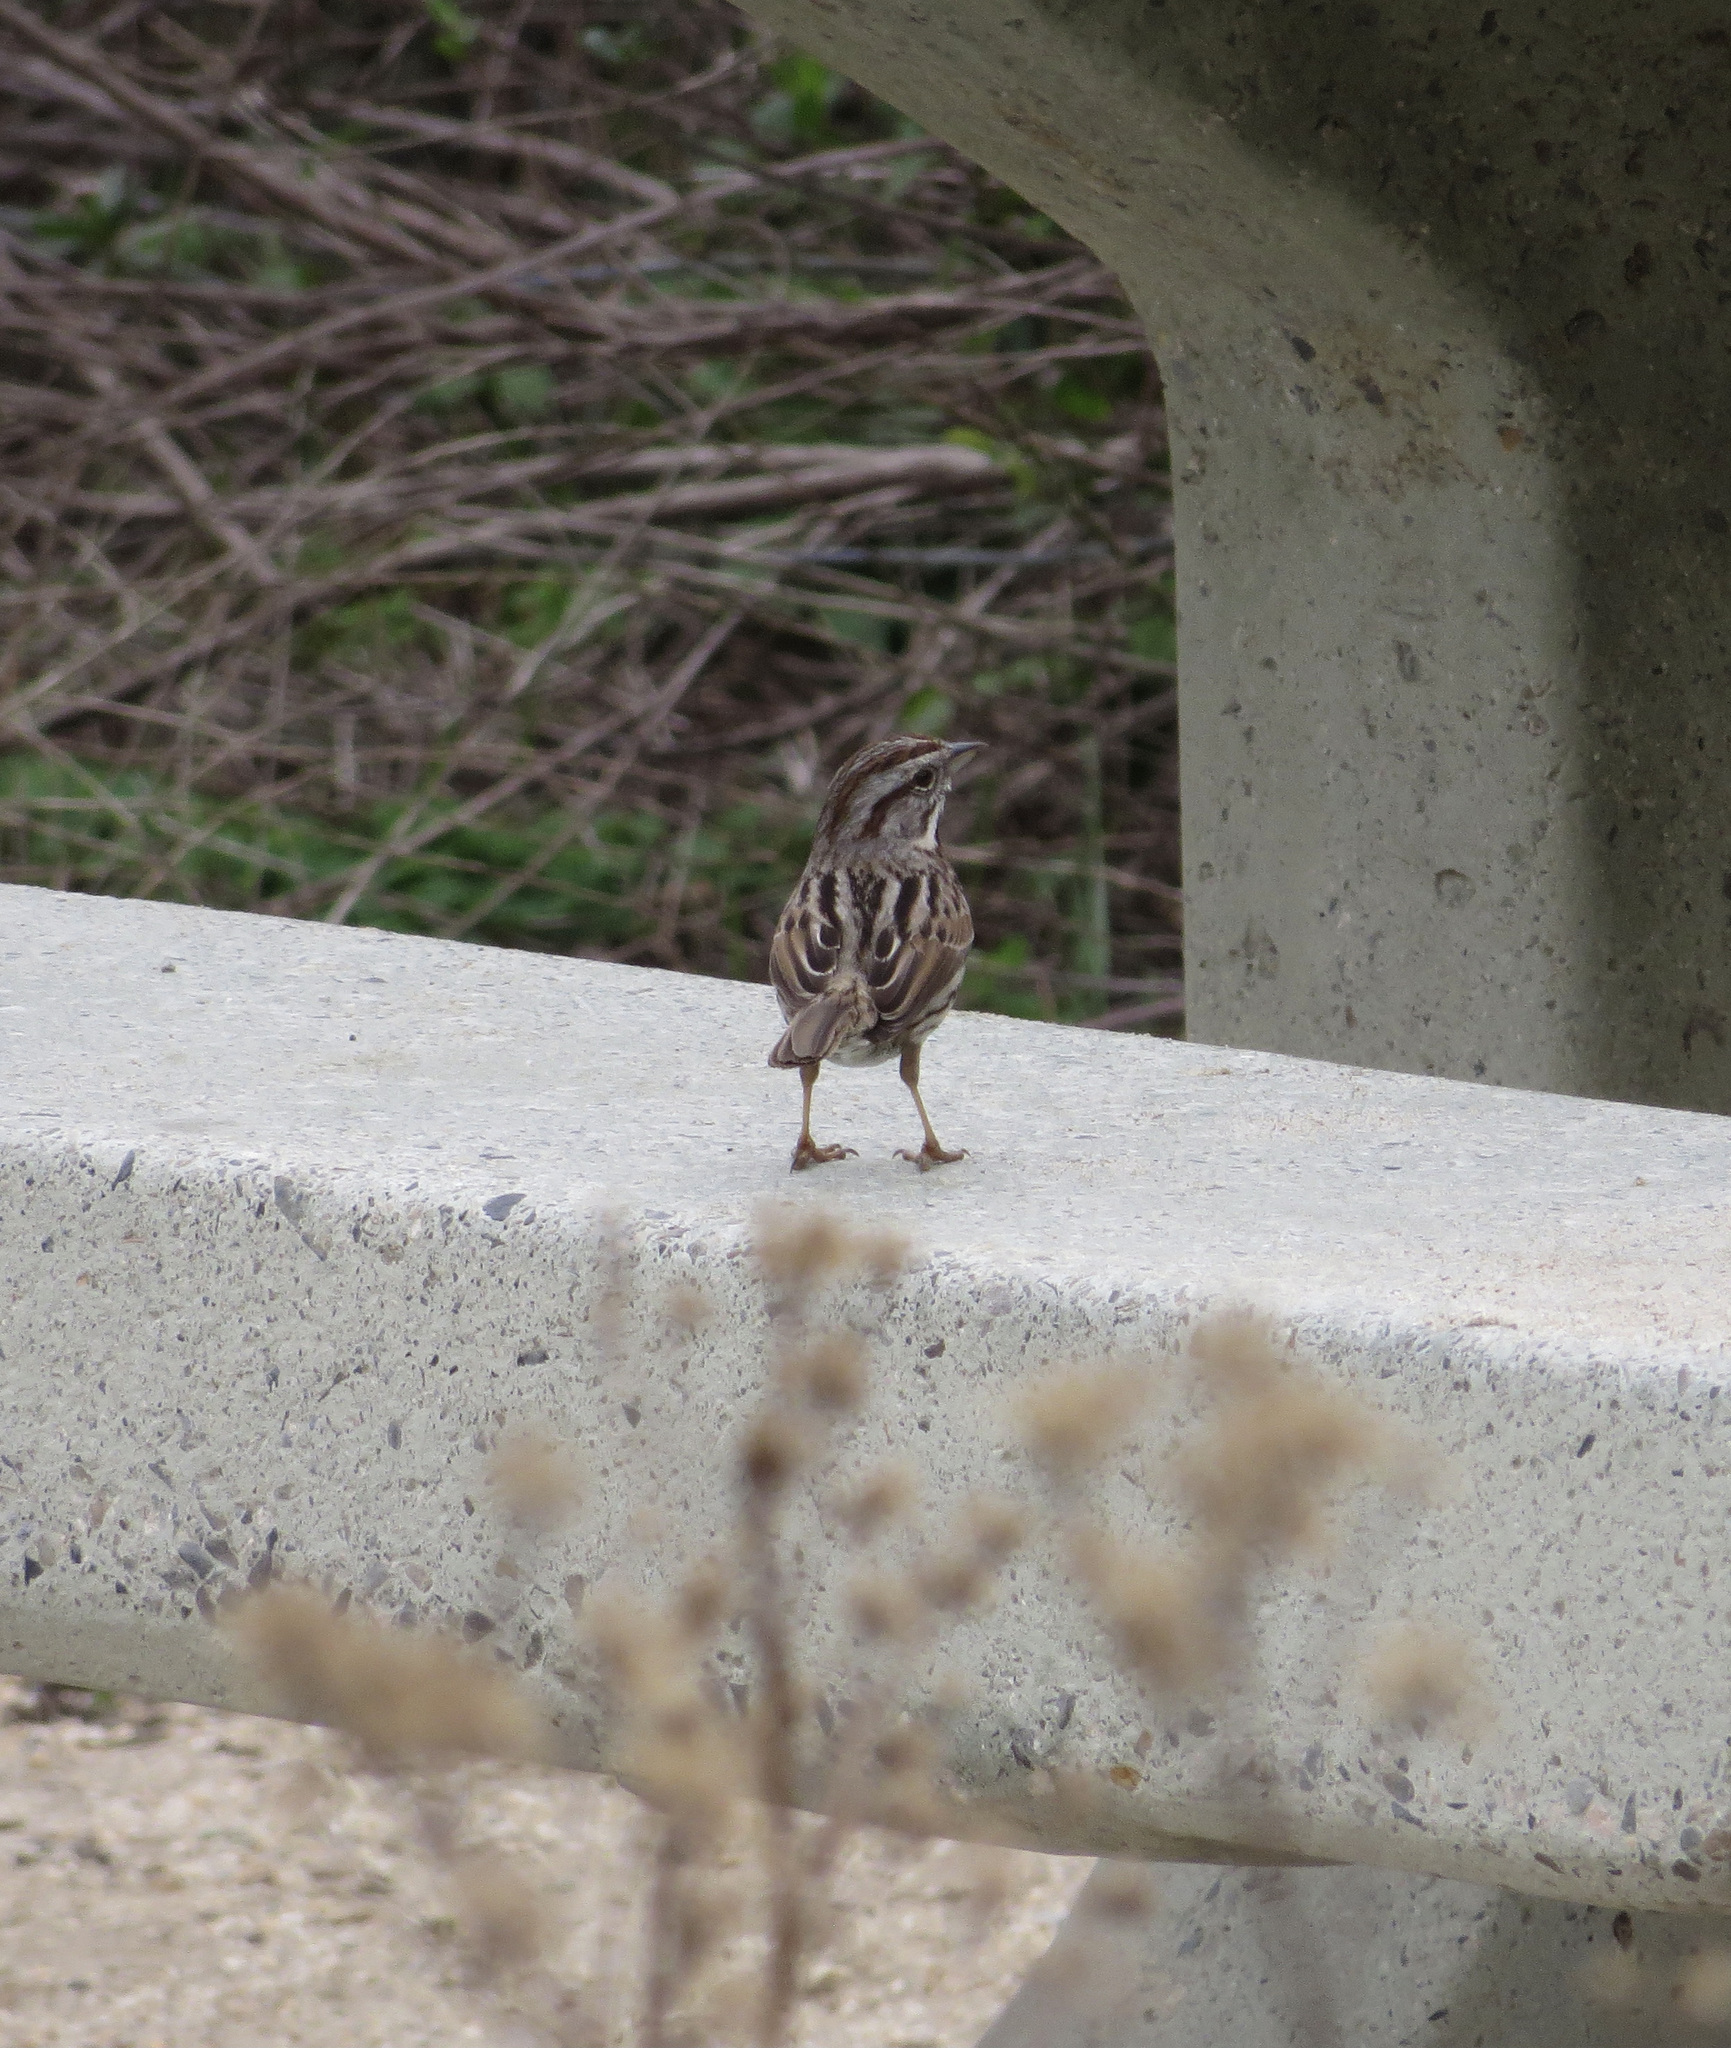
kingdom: Animalia
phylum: Chordata
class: Aves
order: Passeriformes
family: Passerellidae
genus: Melospiza
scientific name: Melospiza melodia
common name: Song sparrow
